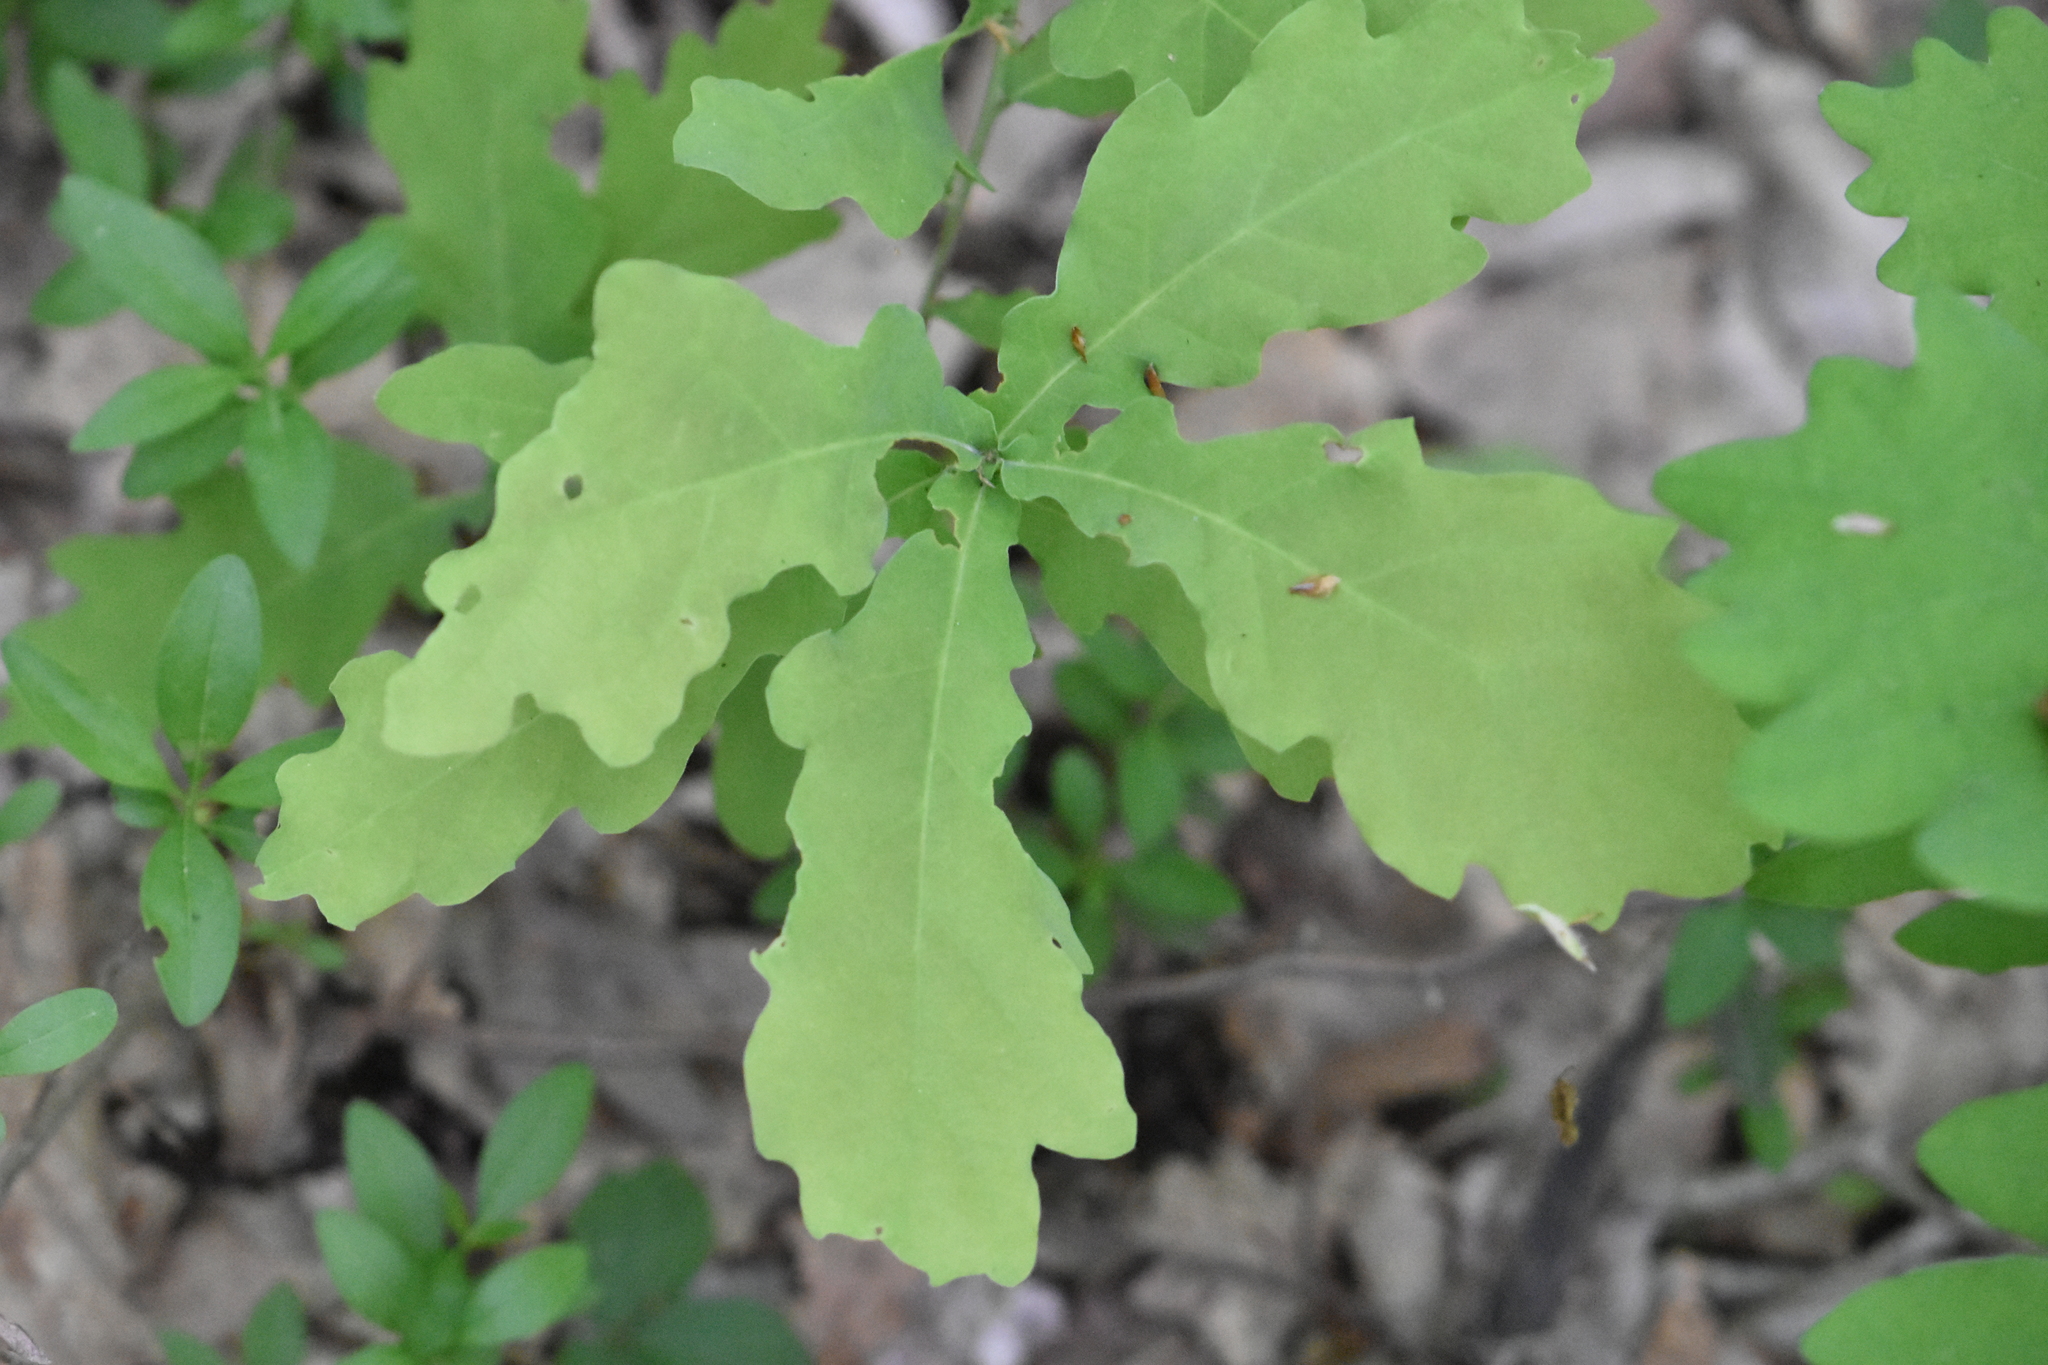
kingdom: Plantae
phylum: Tracheophyta
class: Magnoliopsida
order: Fagales
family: Fagaceae
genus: Quercus
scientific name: Quercus robur
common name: Pedunculate oak
